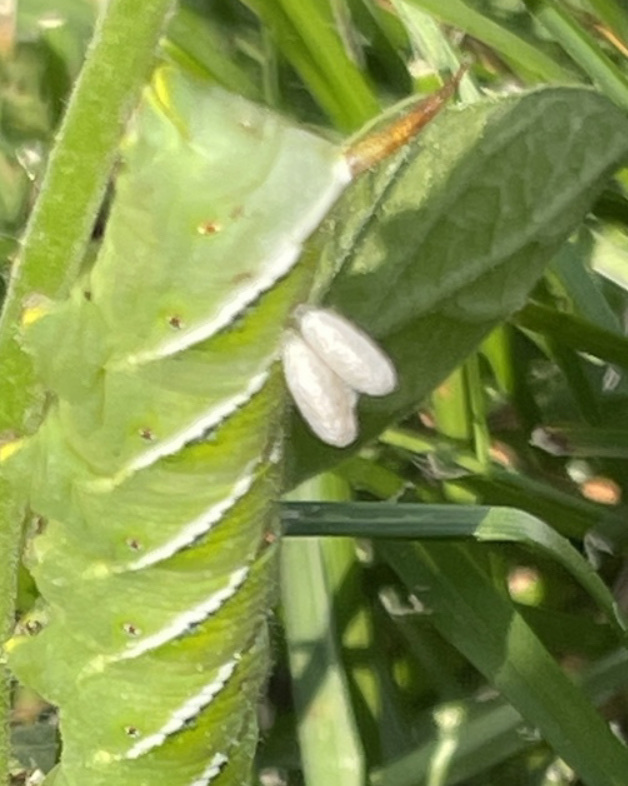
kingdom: Animalia
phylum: Arthropoda
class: Insecta
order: Hymenoptera
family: Braconidae
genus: Cotesia
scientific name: Cotesia congregata
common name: Hornworm parasitoid wasp
